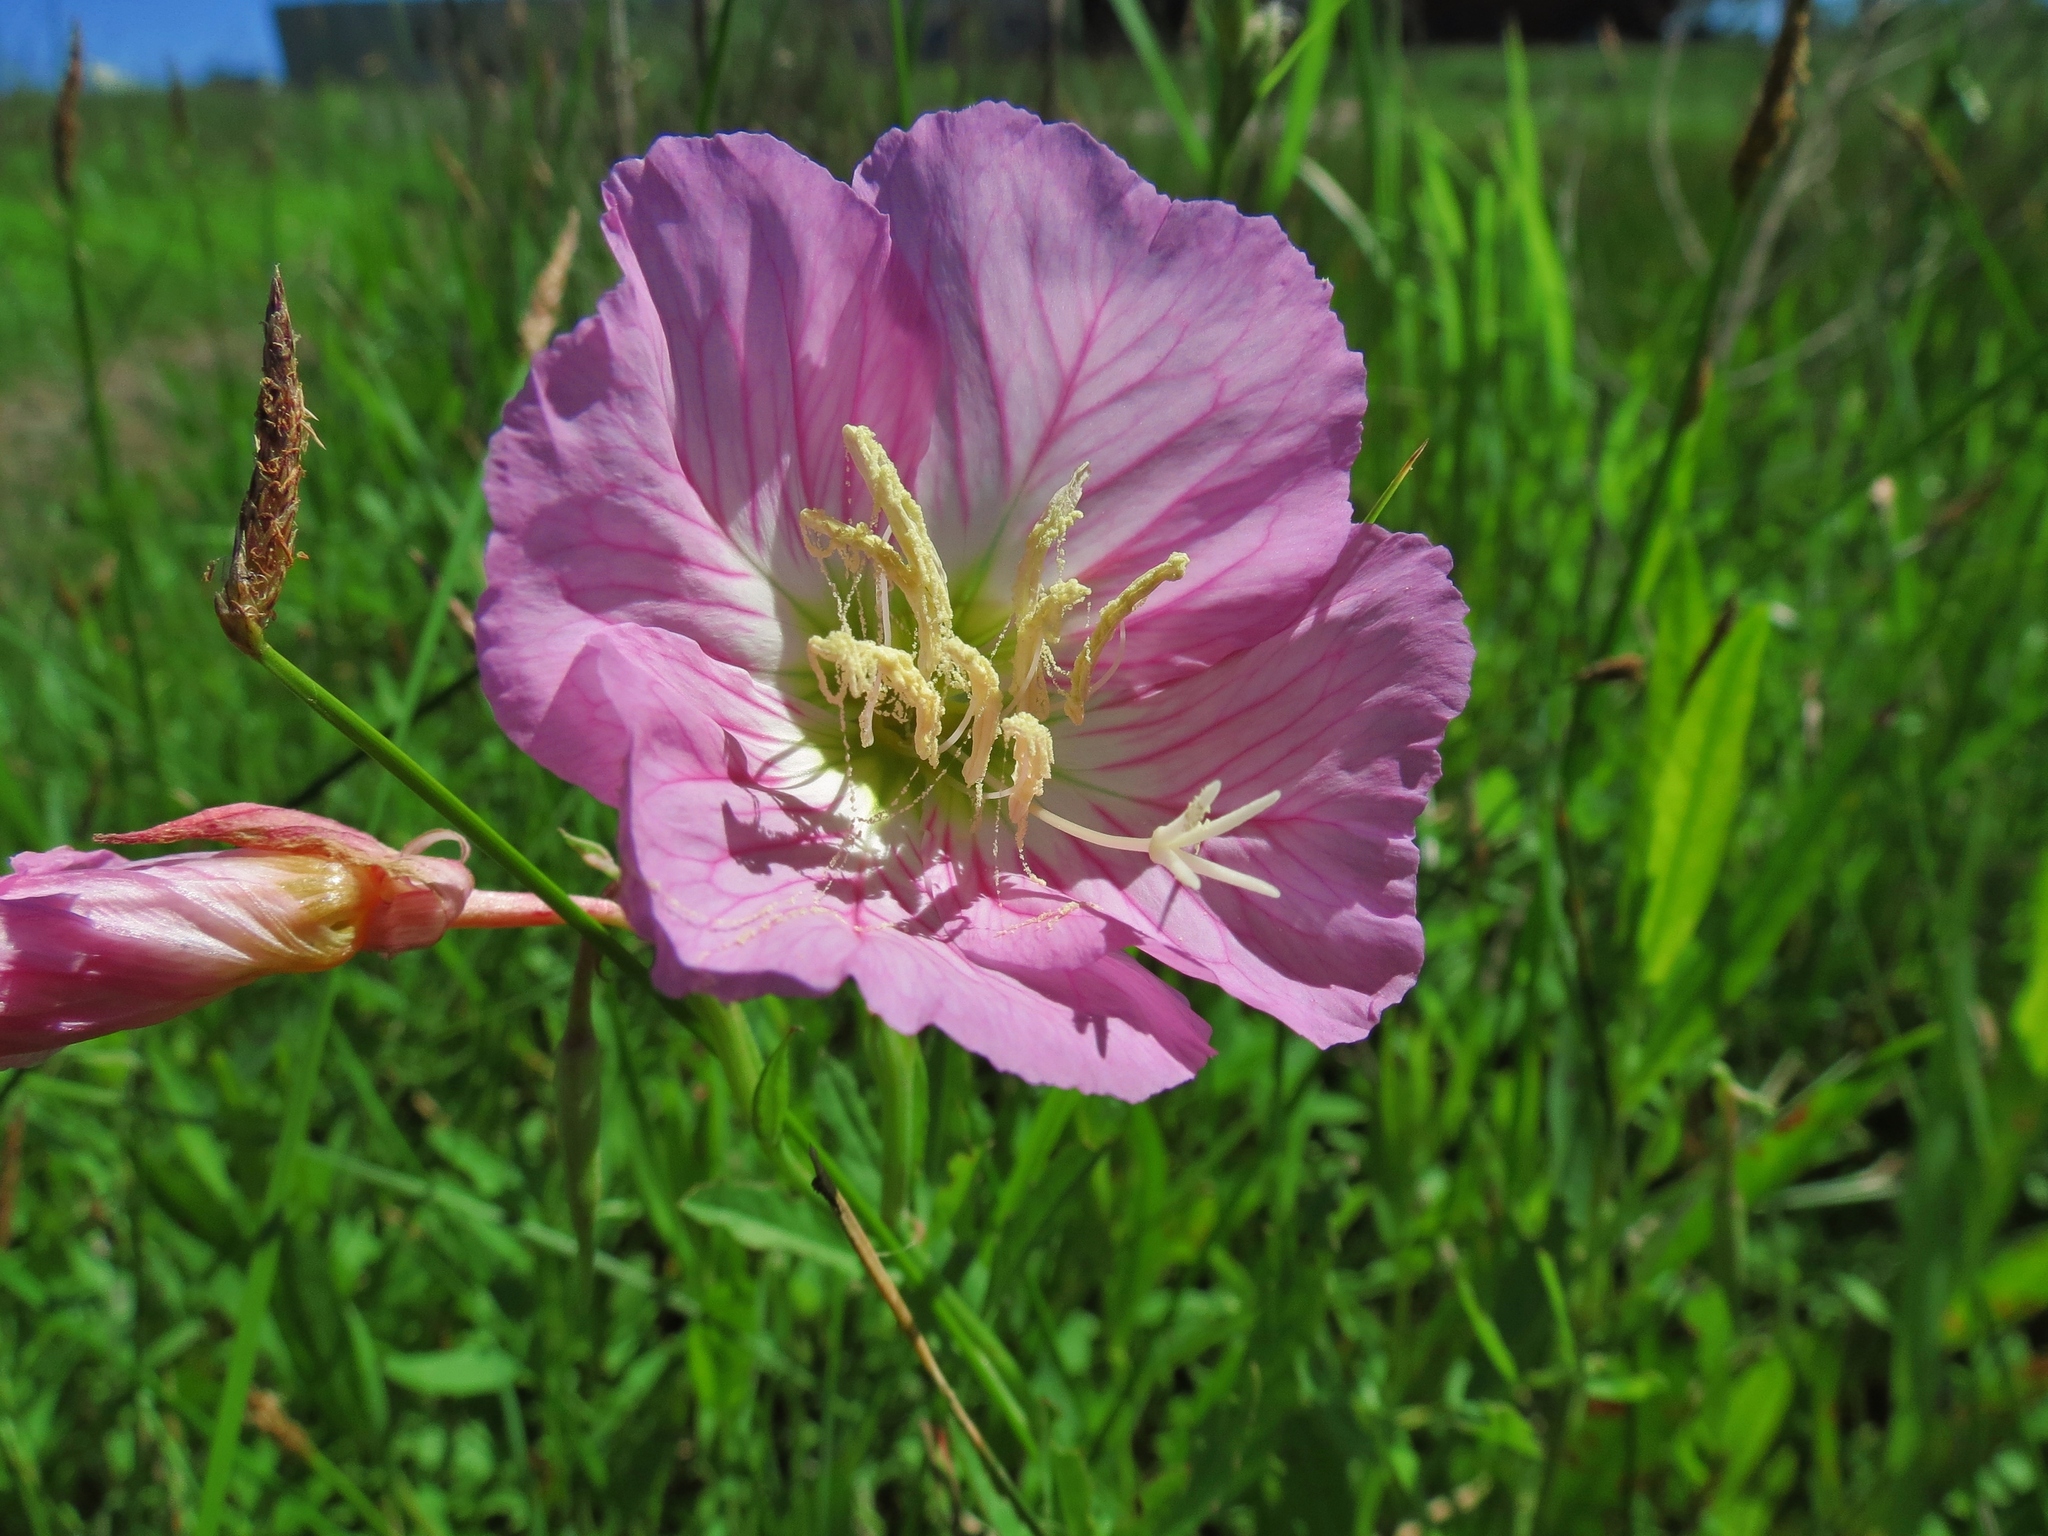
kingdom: Plantae
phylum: Tracheophyta
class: Magnoliopsida
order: Myrtales
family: Onagraceae
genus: Oenothera
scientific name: Oenothera speciosa
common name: White evening-primrose
